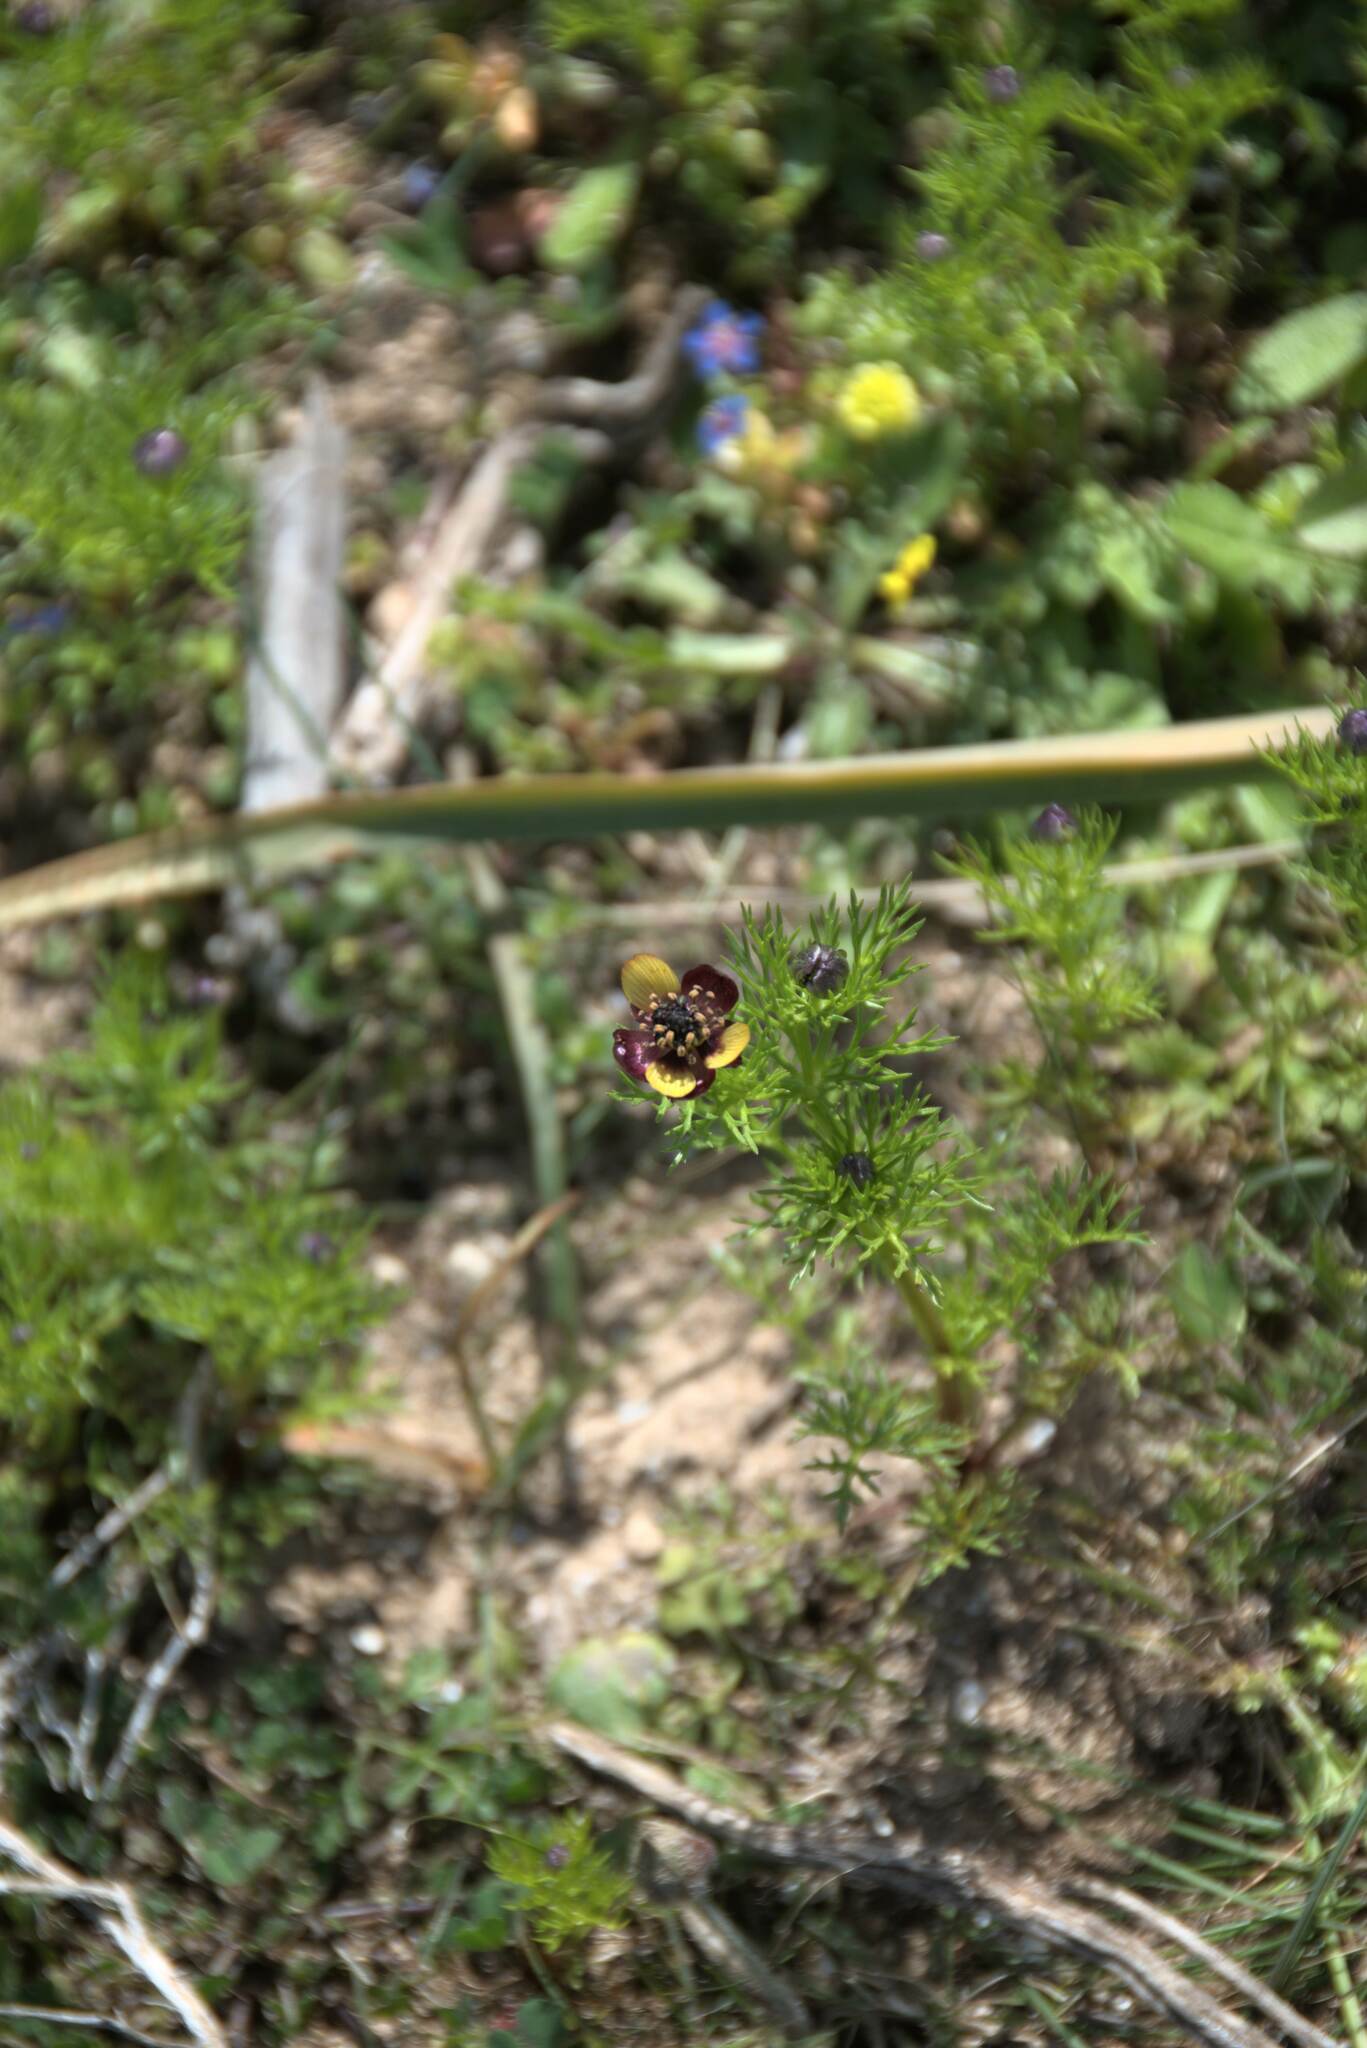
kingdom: Plantae
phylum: Tracheophyta
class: Magnoliopsida
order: Ranunculales
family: Ranunculaceae
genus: Adonis
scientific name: Adonis microcarpa
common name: Pheasant's-eye
